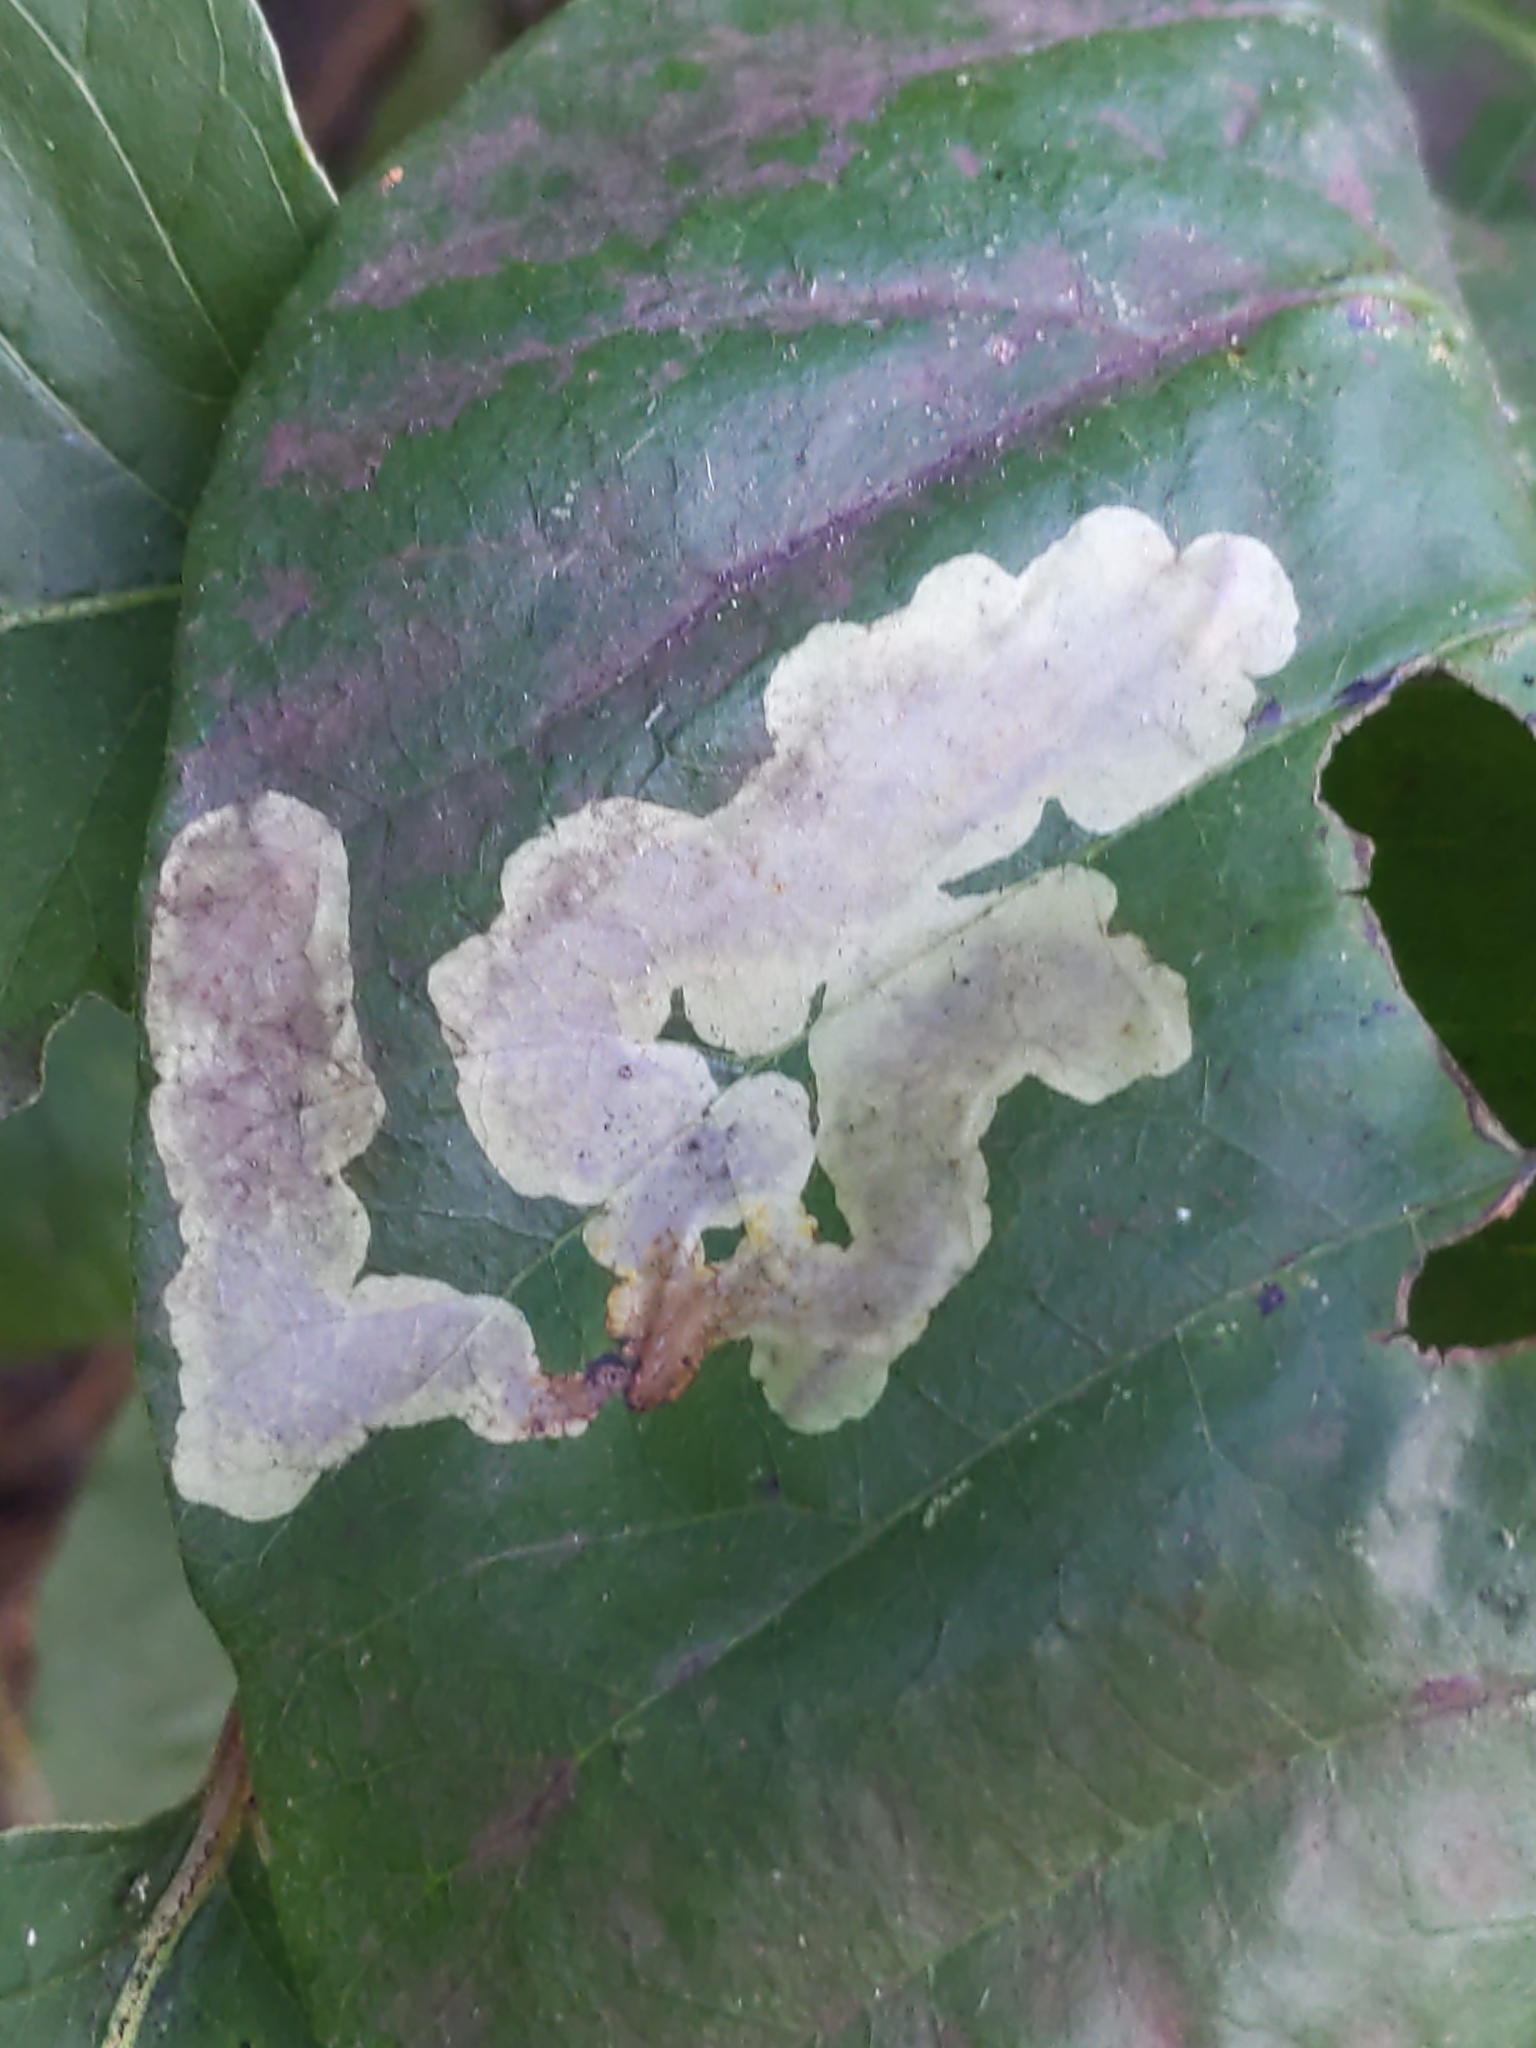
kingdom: Animalia
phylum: Arthropoda
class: Insecta
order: Lepidoptera
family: Gracillariidae
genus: Cameraria
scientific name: Cameraria guttifinitella
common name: Poison ivy leaf-miner moth
